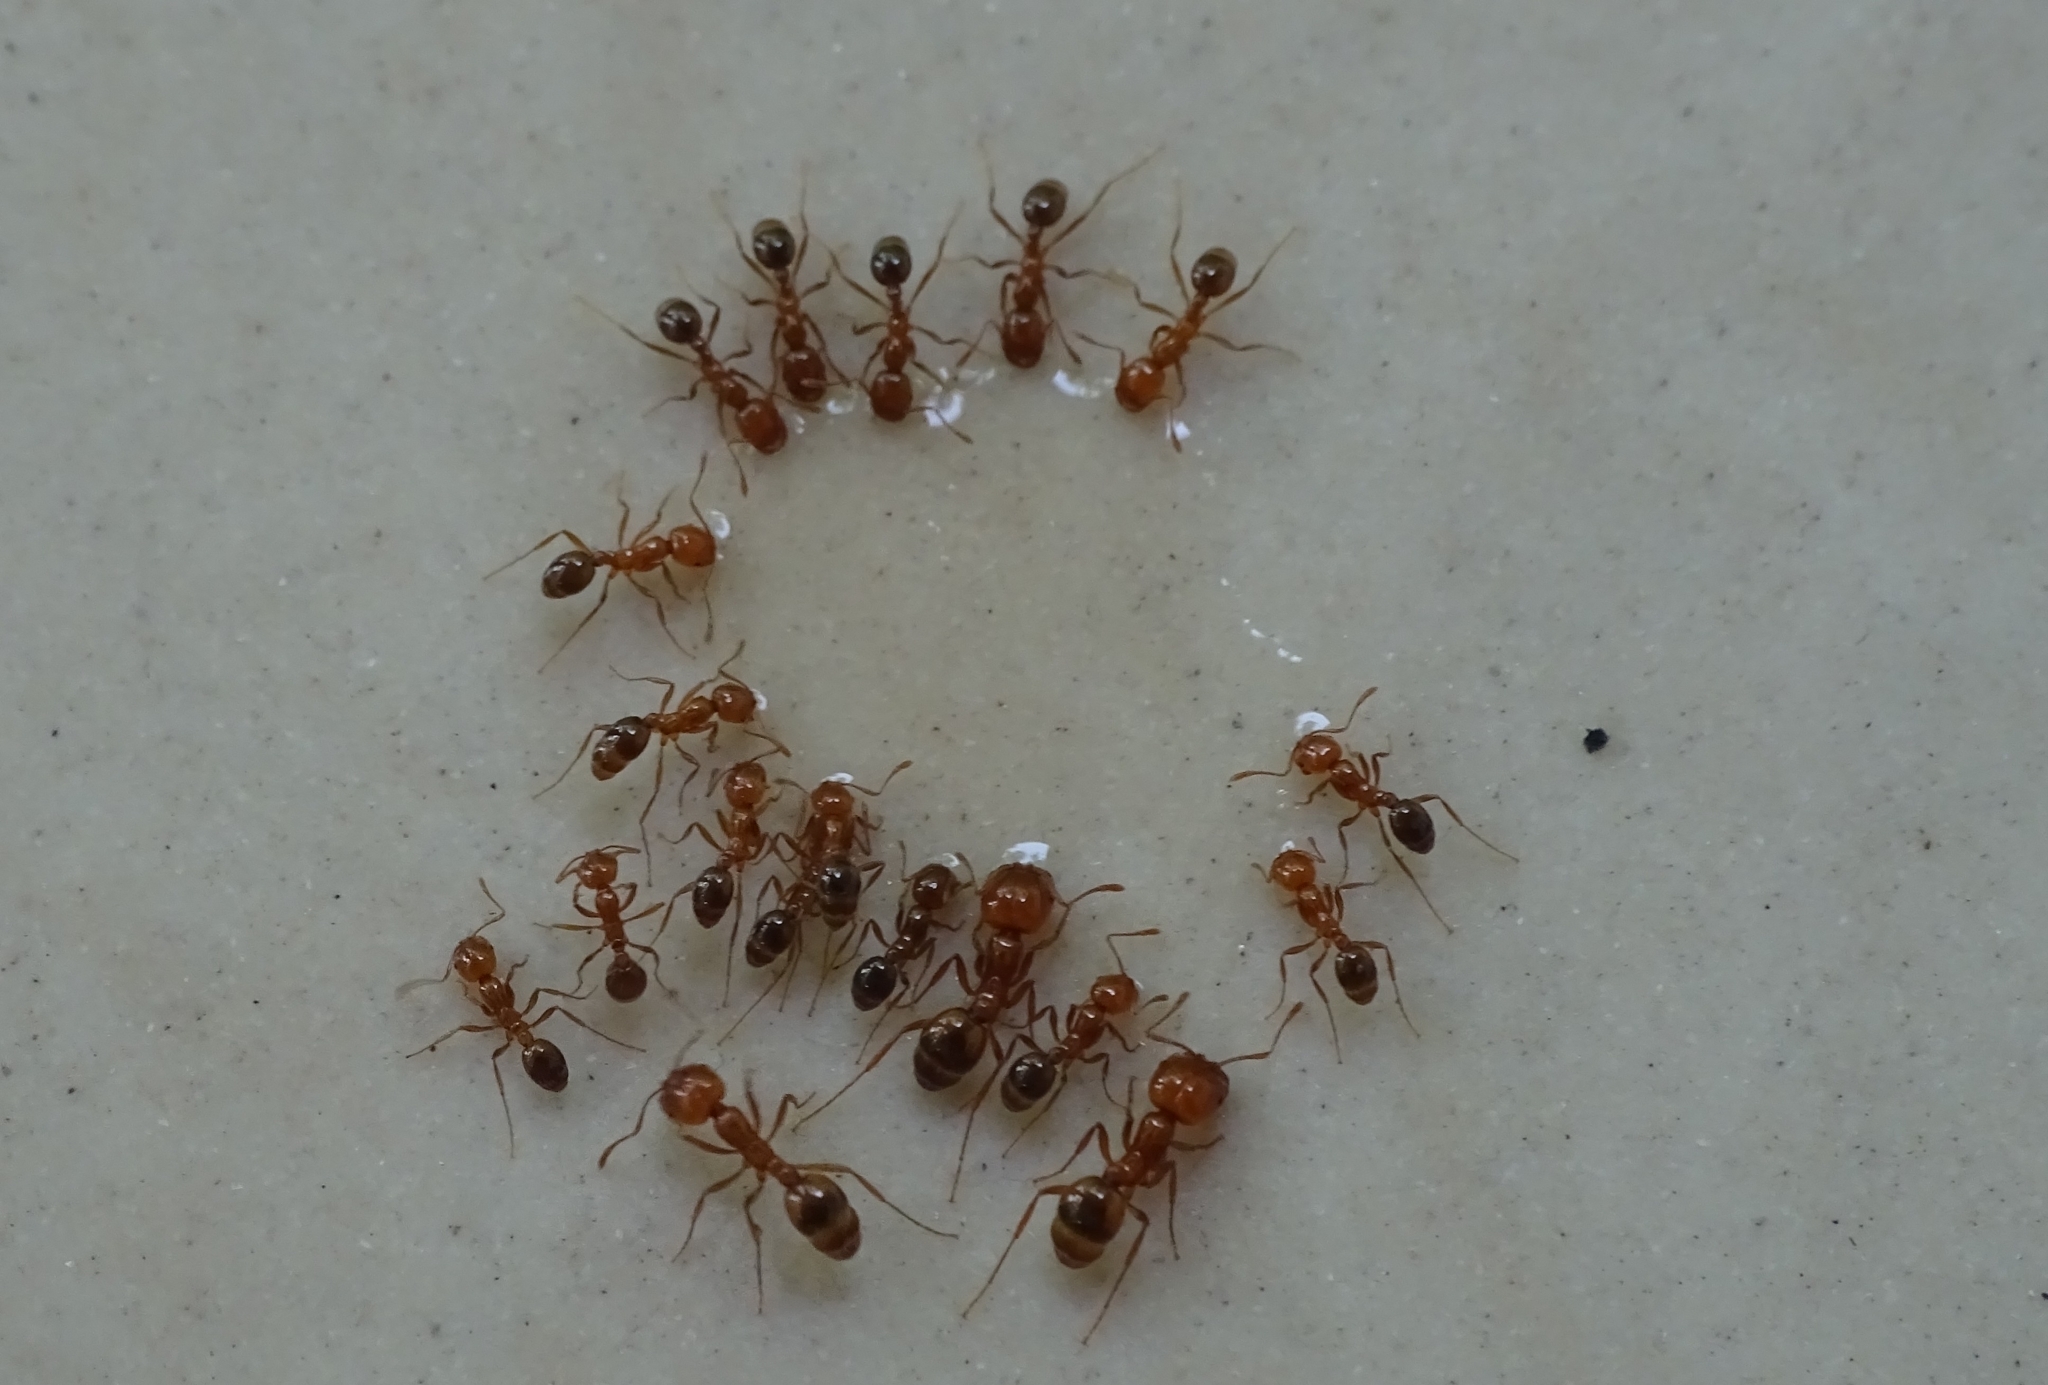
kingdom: Animalia
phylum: Arthropoda
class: Insecta
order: Hymenoptera
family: Formicidae
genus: Solenopsis
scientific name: Solenopsis geminata
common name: Tropical fire ant
